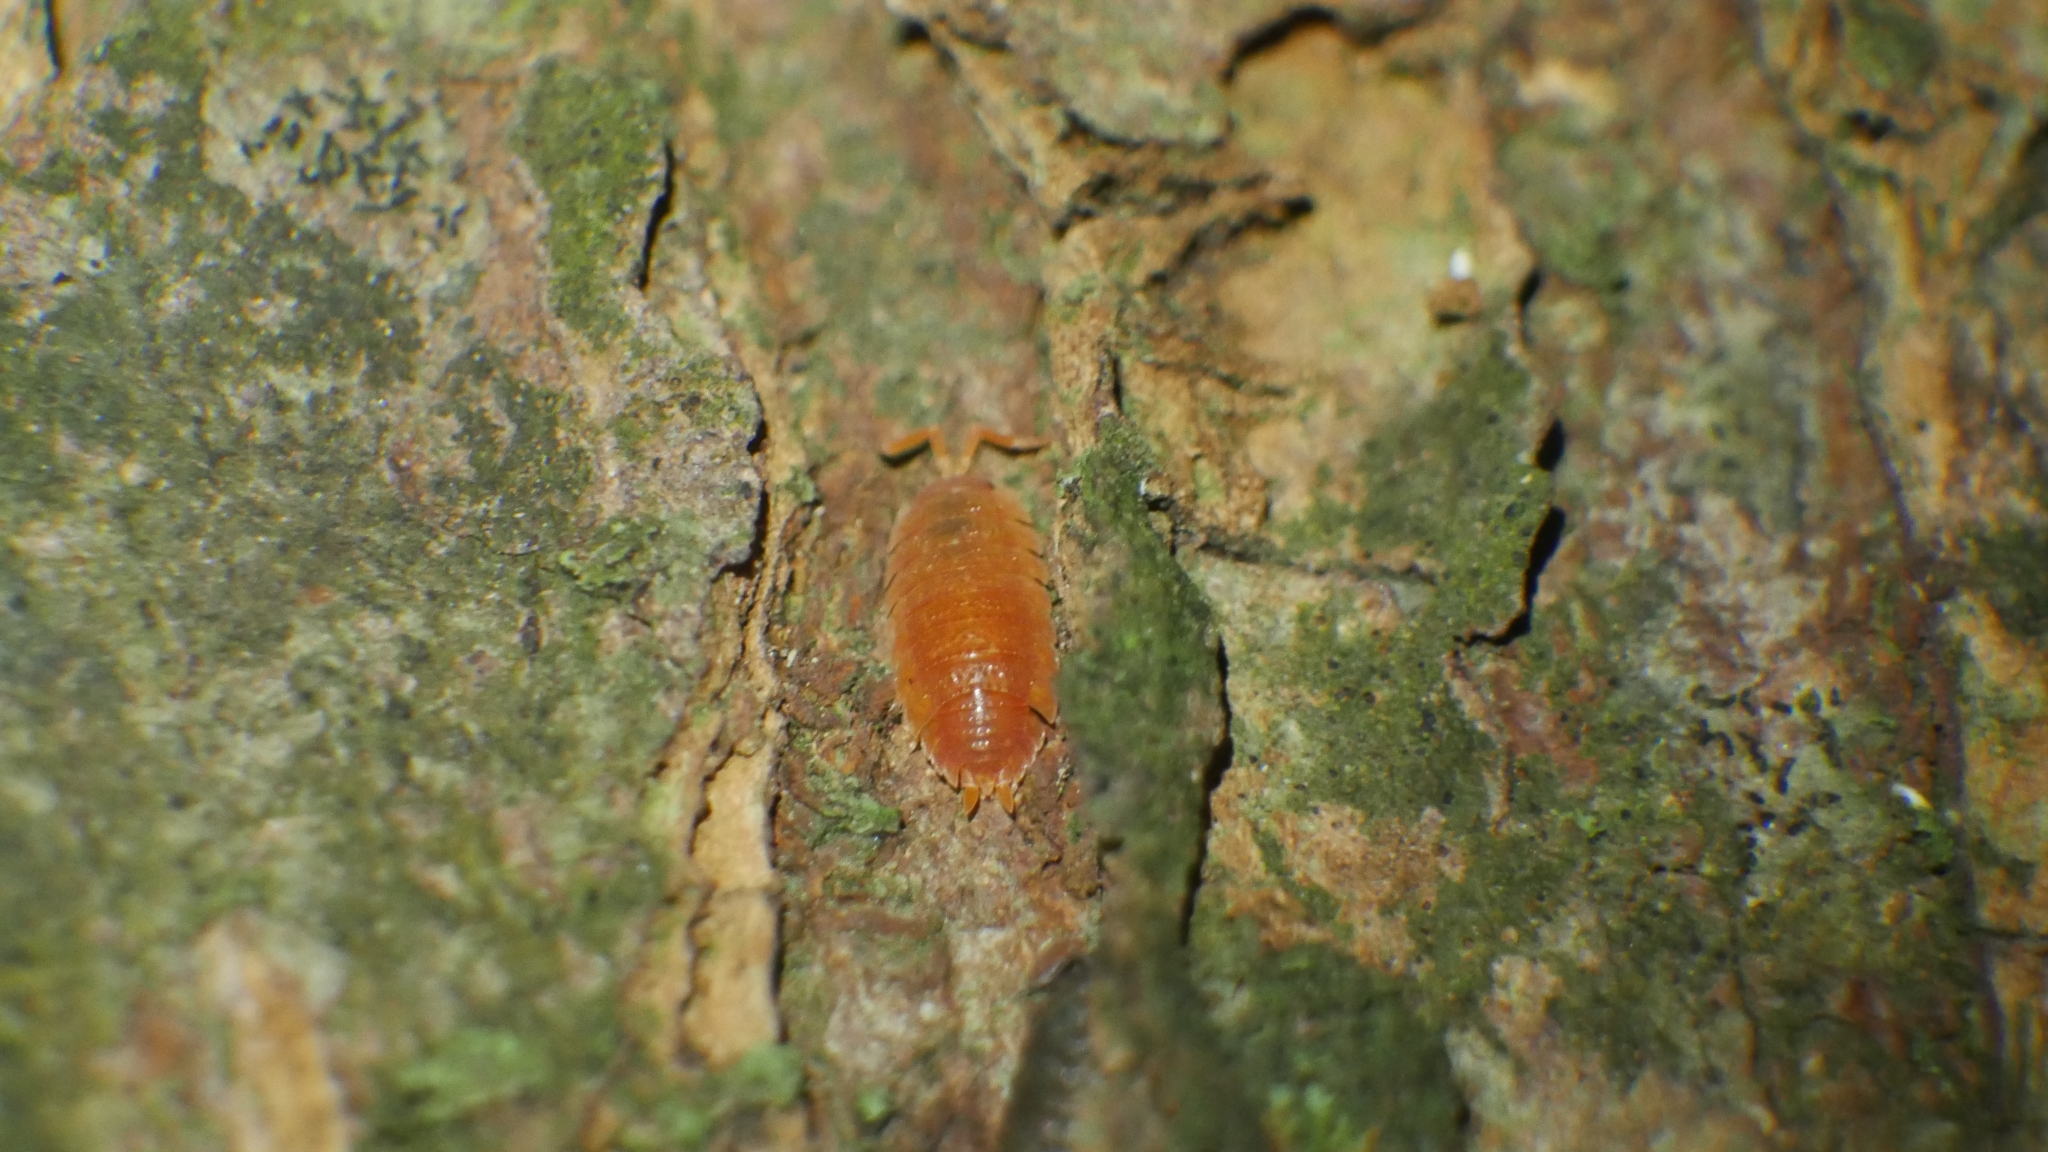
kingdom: Animalia
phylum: Arthropoda
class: Malacostraca
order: Isopoda
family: Porcellionidae
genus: Porcellio
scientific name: Porcellio scaber
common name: Common rough woodlouse
